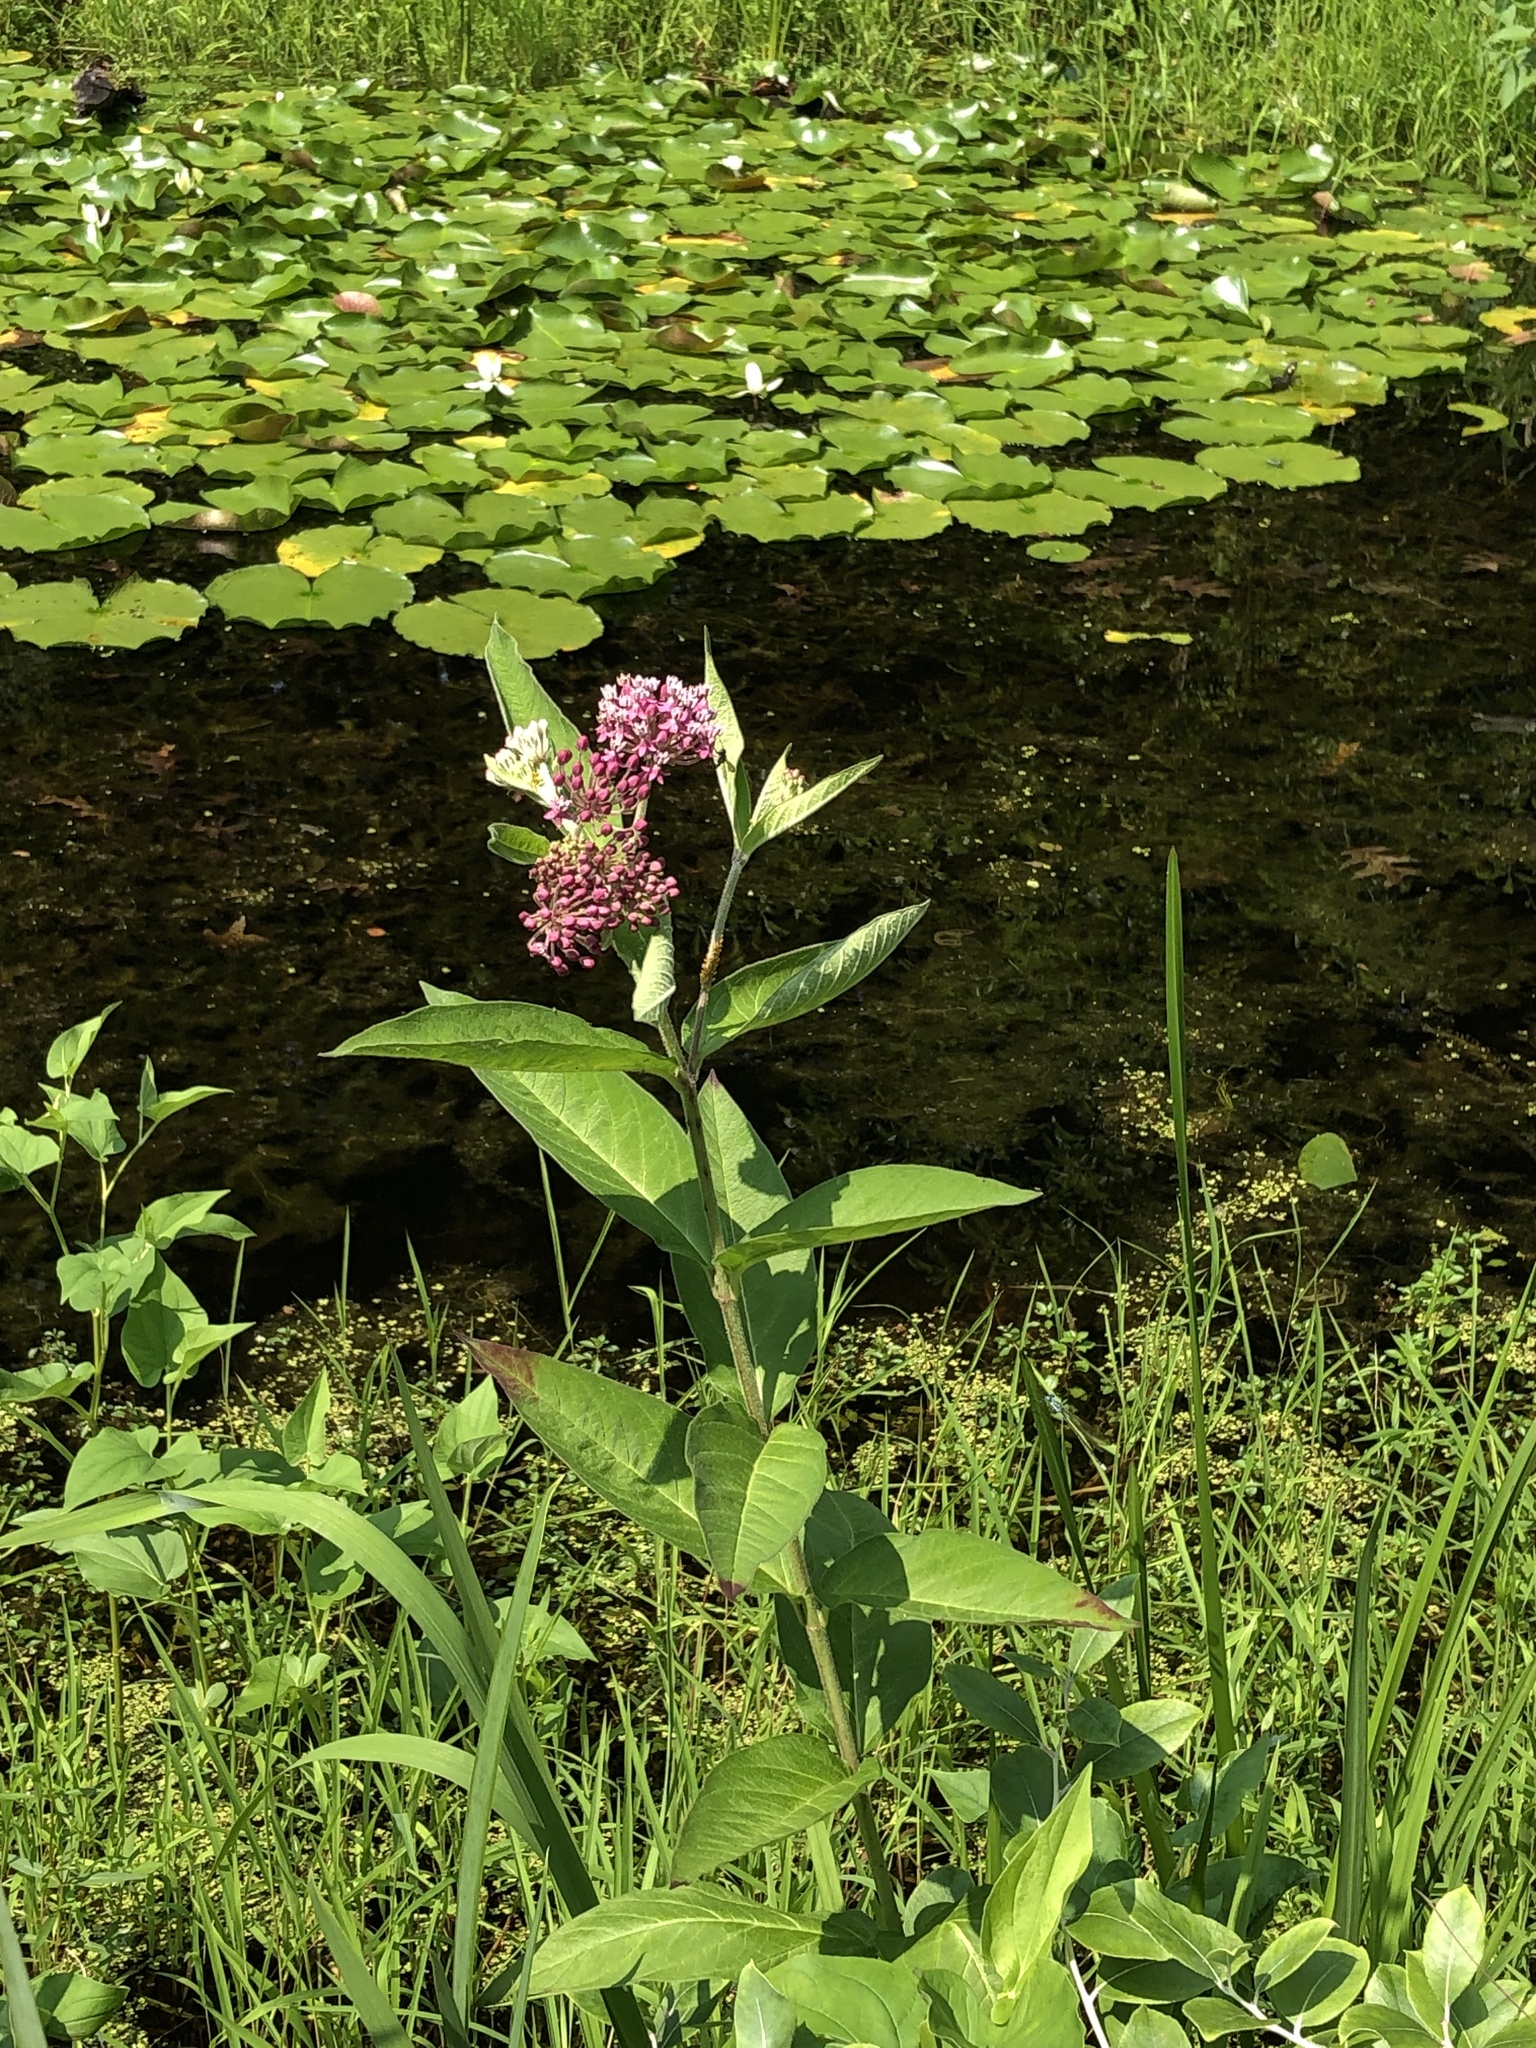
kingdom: Plantae
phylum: Tracheophyta
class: Magnoliopsida
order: Gentianales
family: Apocynaceae
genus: Asclepias
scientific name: Asclepias incarnata
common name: Swamp milkweed
